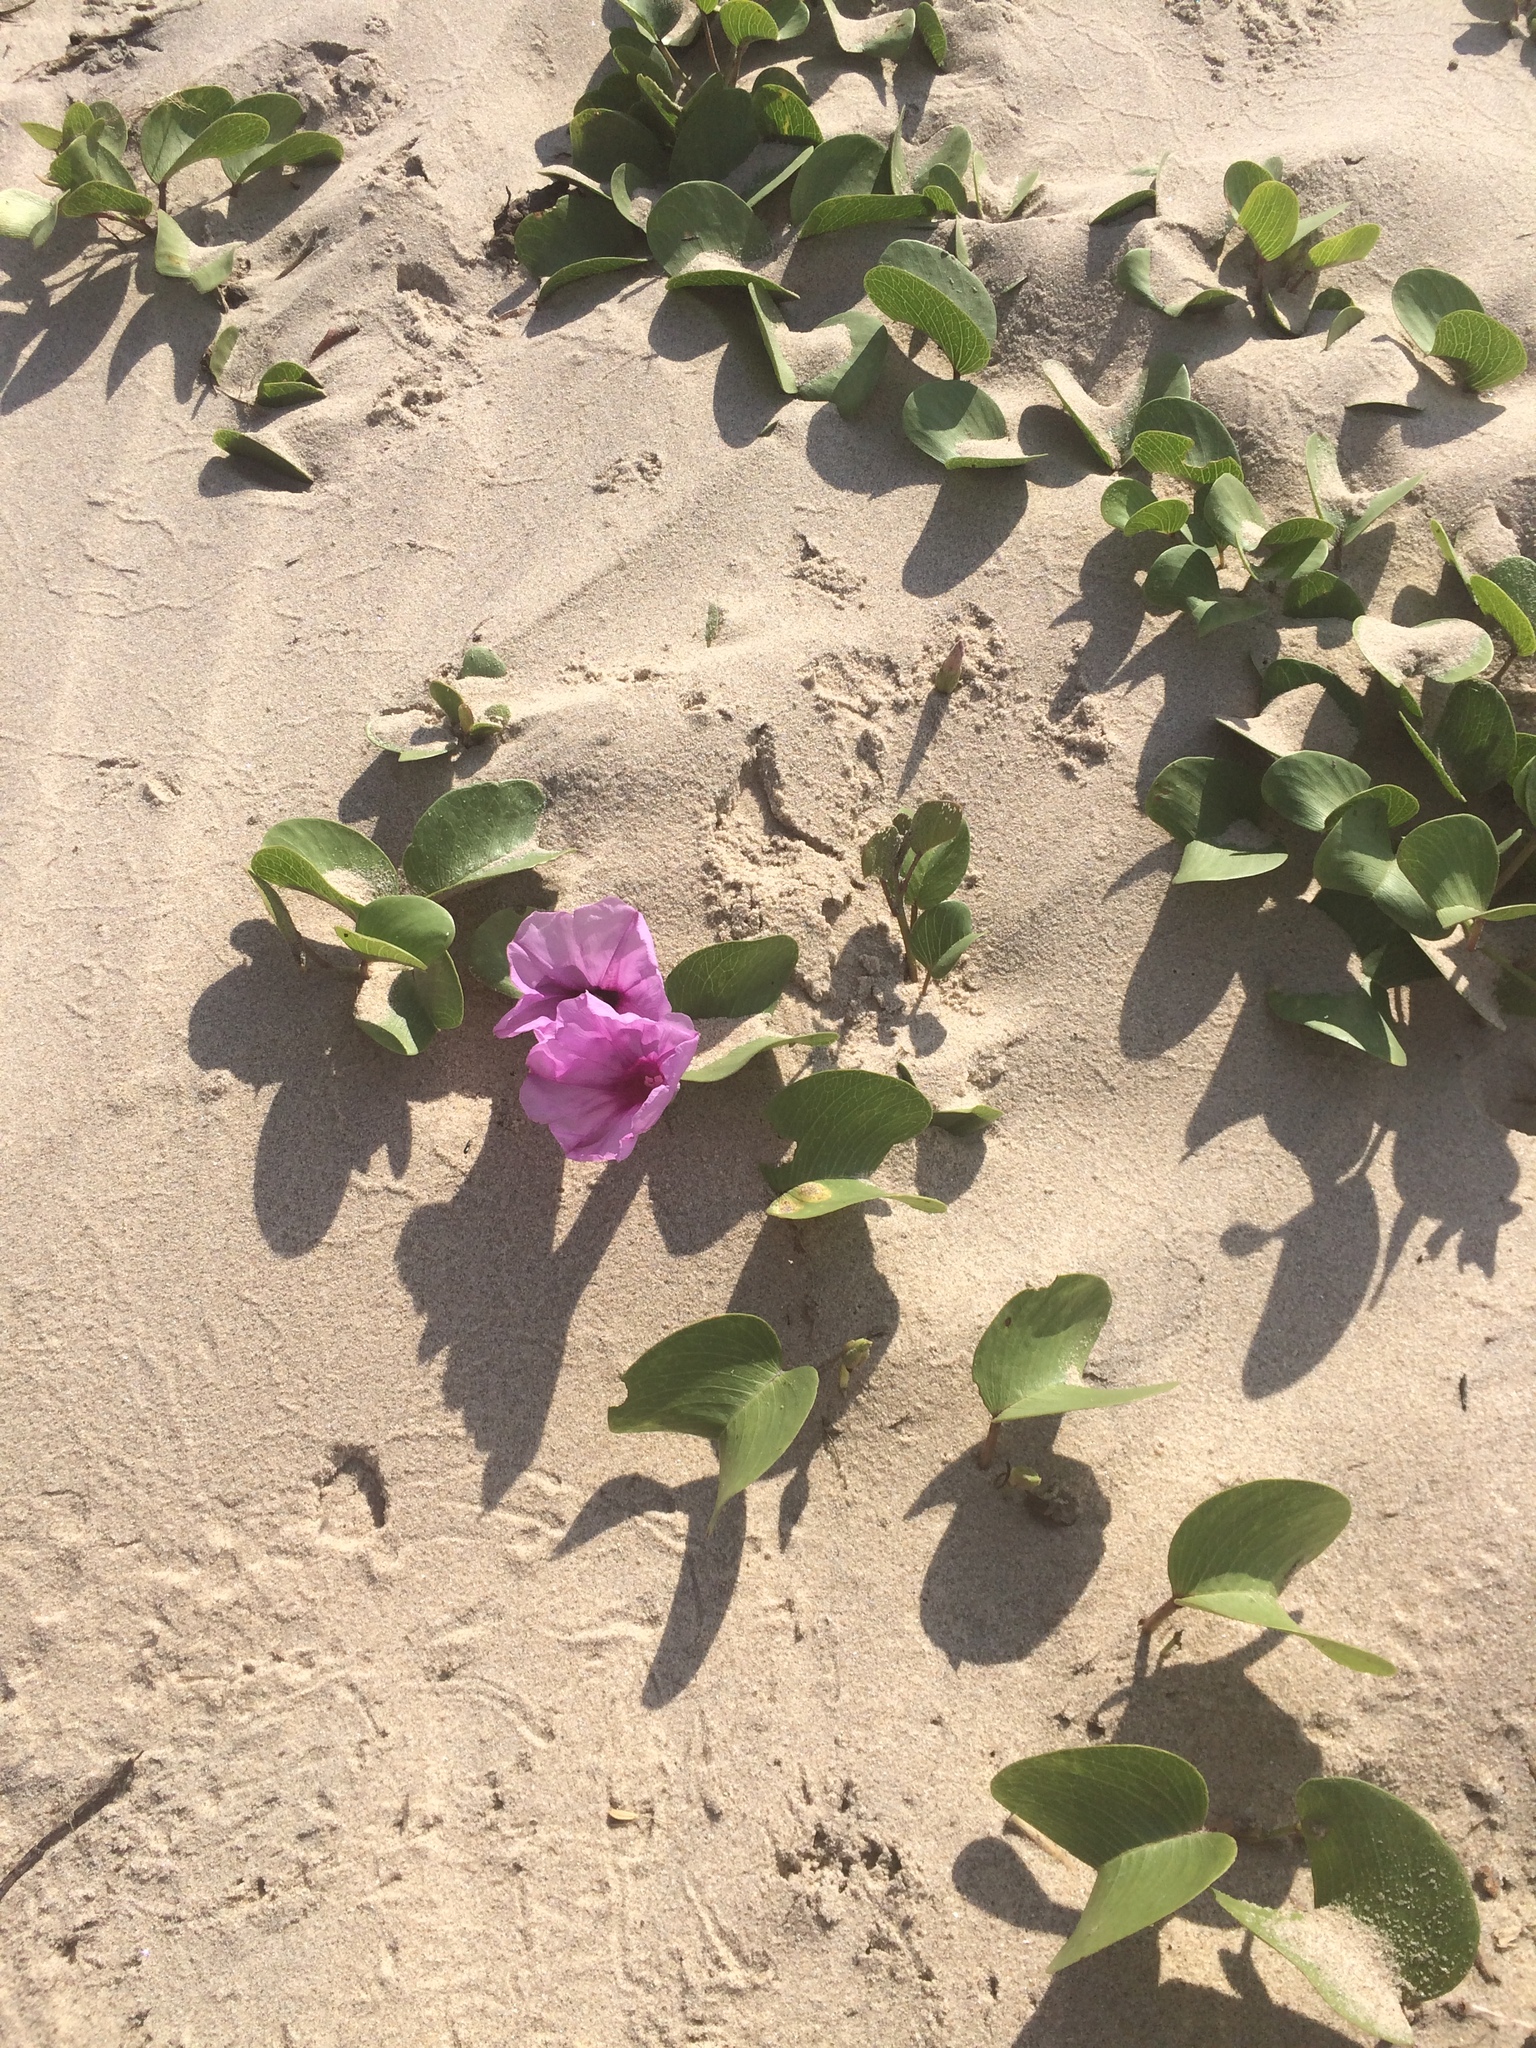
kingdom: Plantae
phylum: Tracheophyta
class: Magnoliopsida
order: Solanales
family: Convolvulaceae
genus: Ipomoea
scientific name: Ipomoea pes-caprae
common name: Beach morning glory
